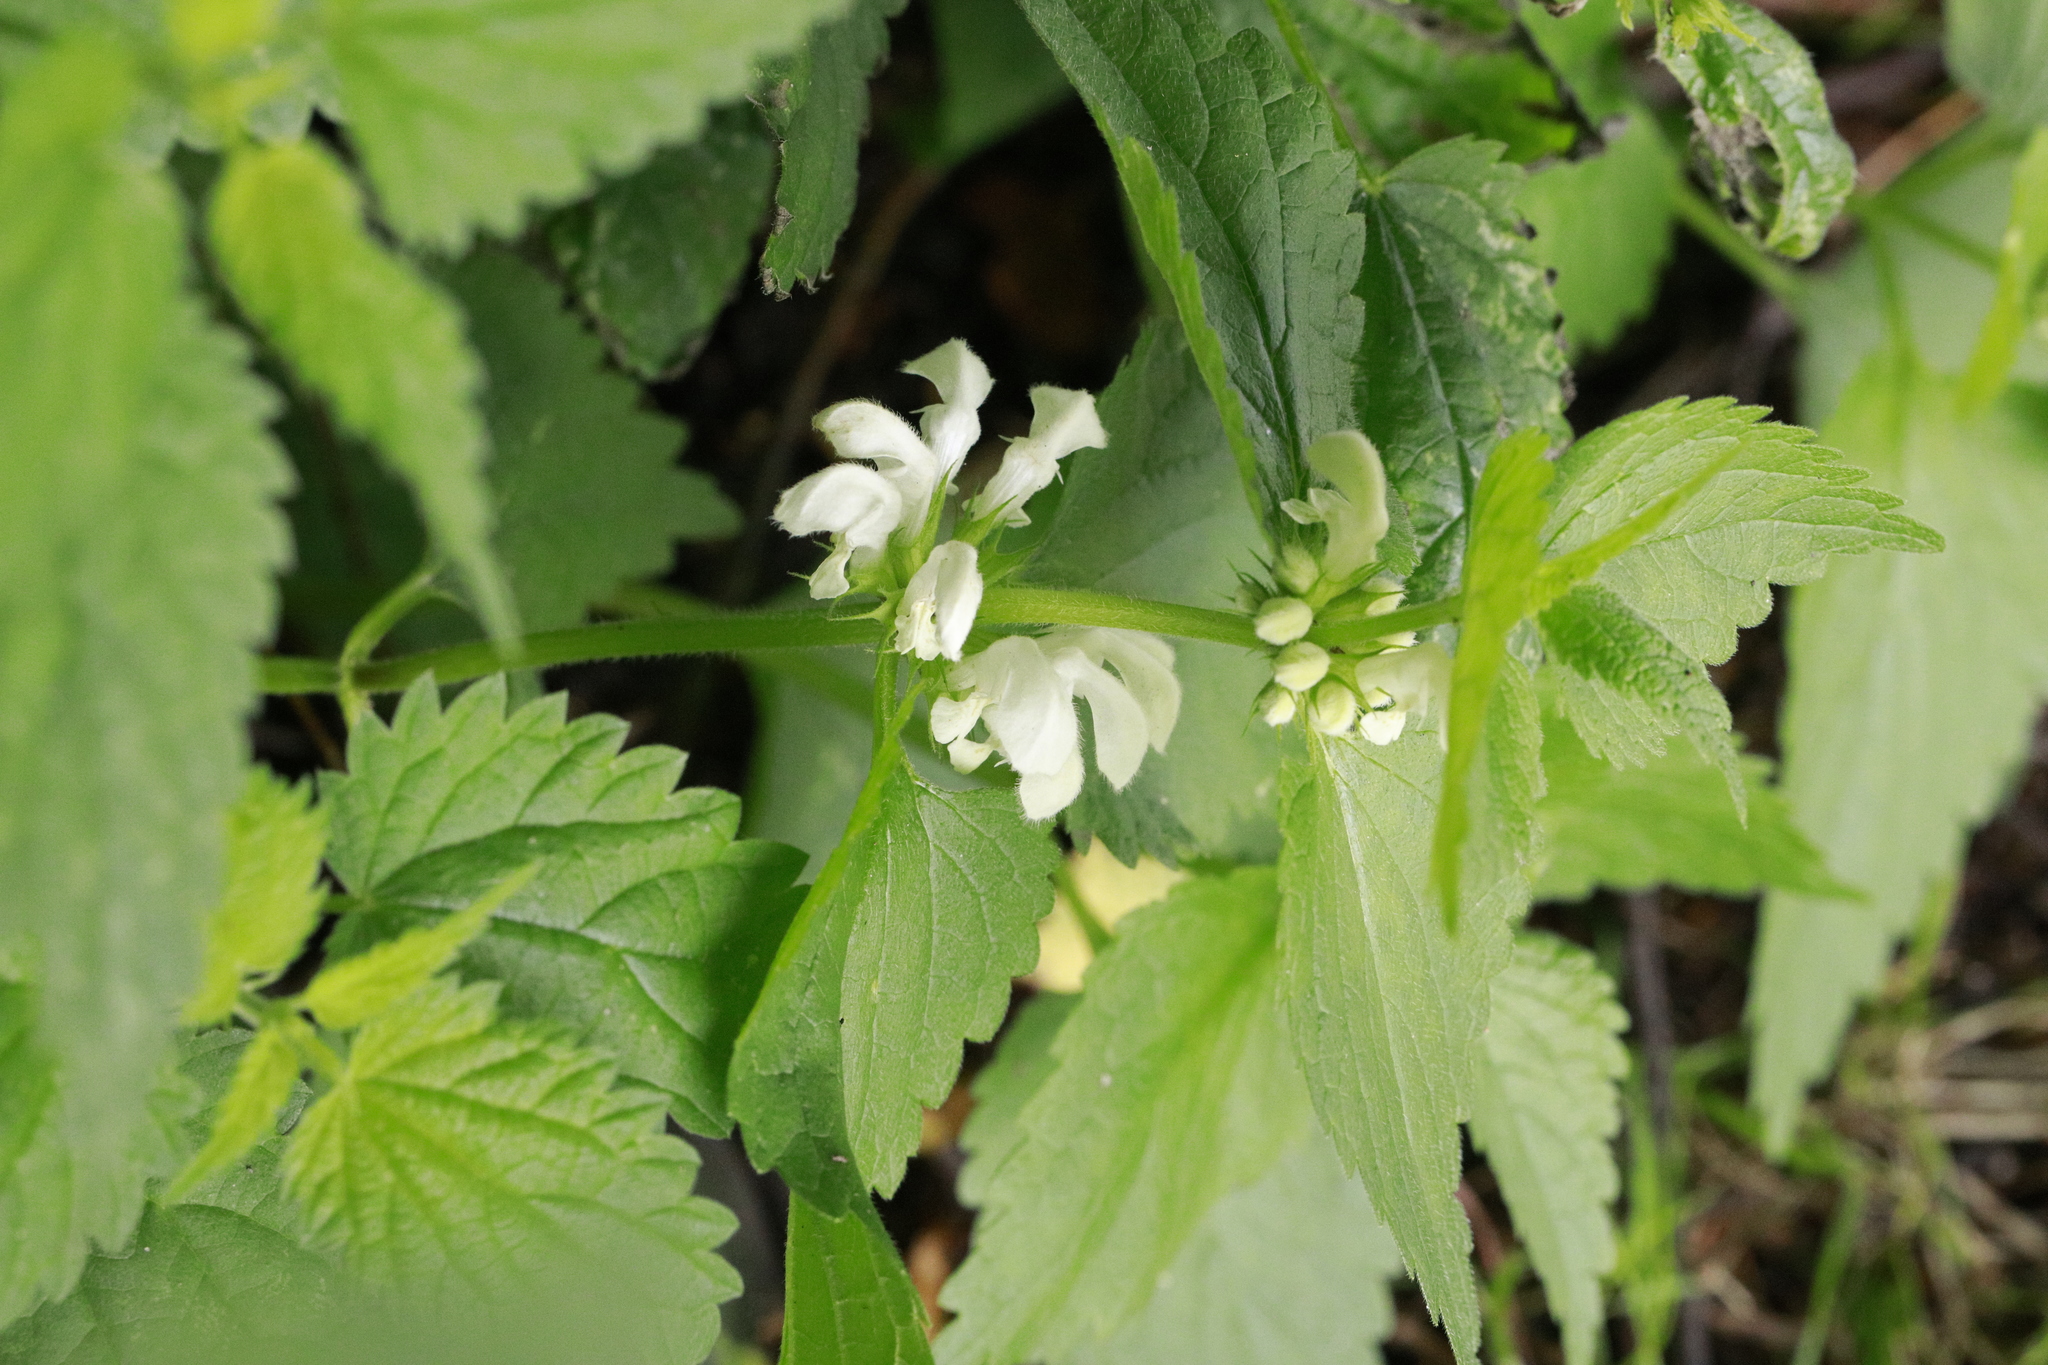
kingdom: Plantae
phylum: Tracheophyta
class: Magnoliopsida
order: Lamiales
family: Lamiaceae
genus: Lamium
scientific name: Lamium album
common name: White dead-nettle
